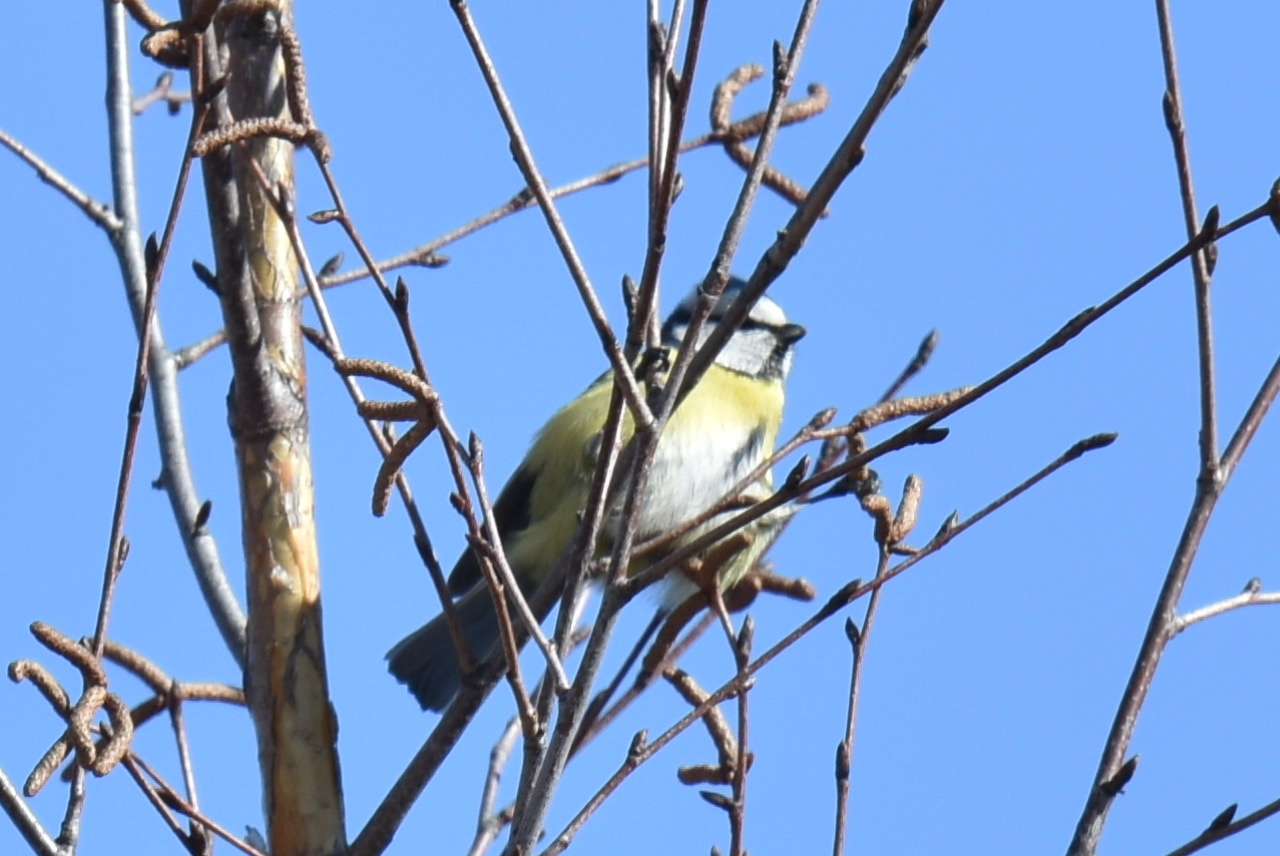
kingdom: Animalia
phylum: Chordata
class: Aves
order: Passeriformes
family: Paridae
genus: Cyanistes
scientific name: Cyanistes caeruleus
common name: Eurasian blue tit
